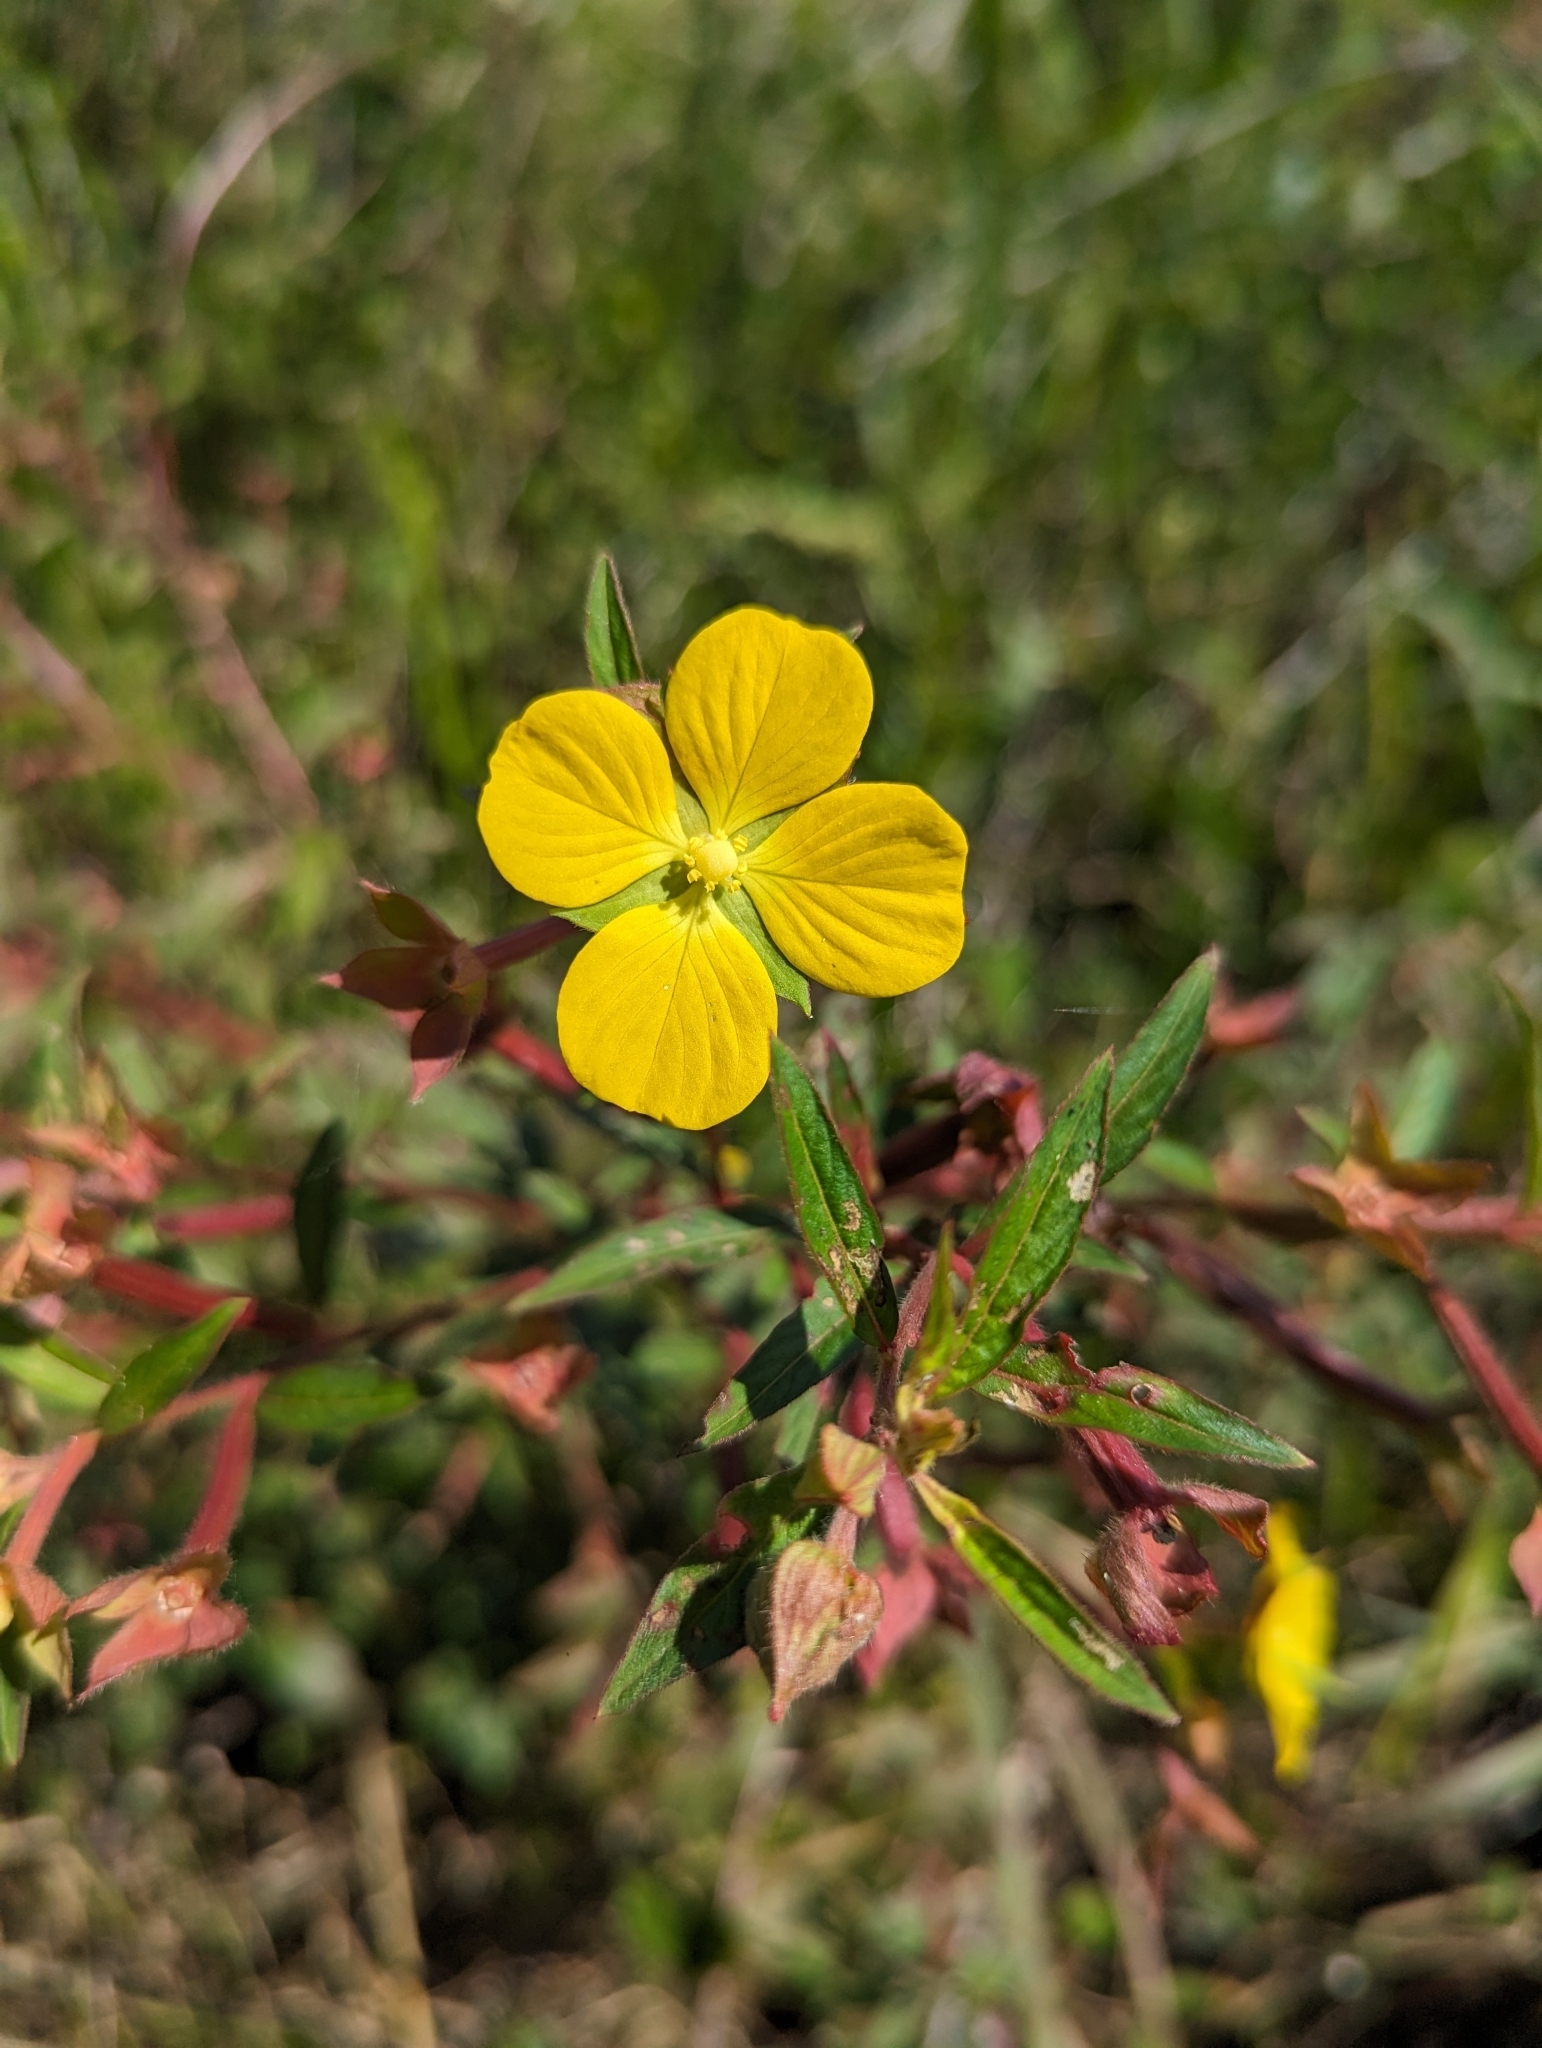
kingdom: Plantae
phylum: Tracheophyta
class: Magnoliopsida
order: Myrtales
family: Onagraceae
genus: Ludwigia
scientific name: Ludwigia octovalvis
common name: Water-primrose
